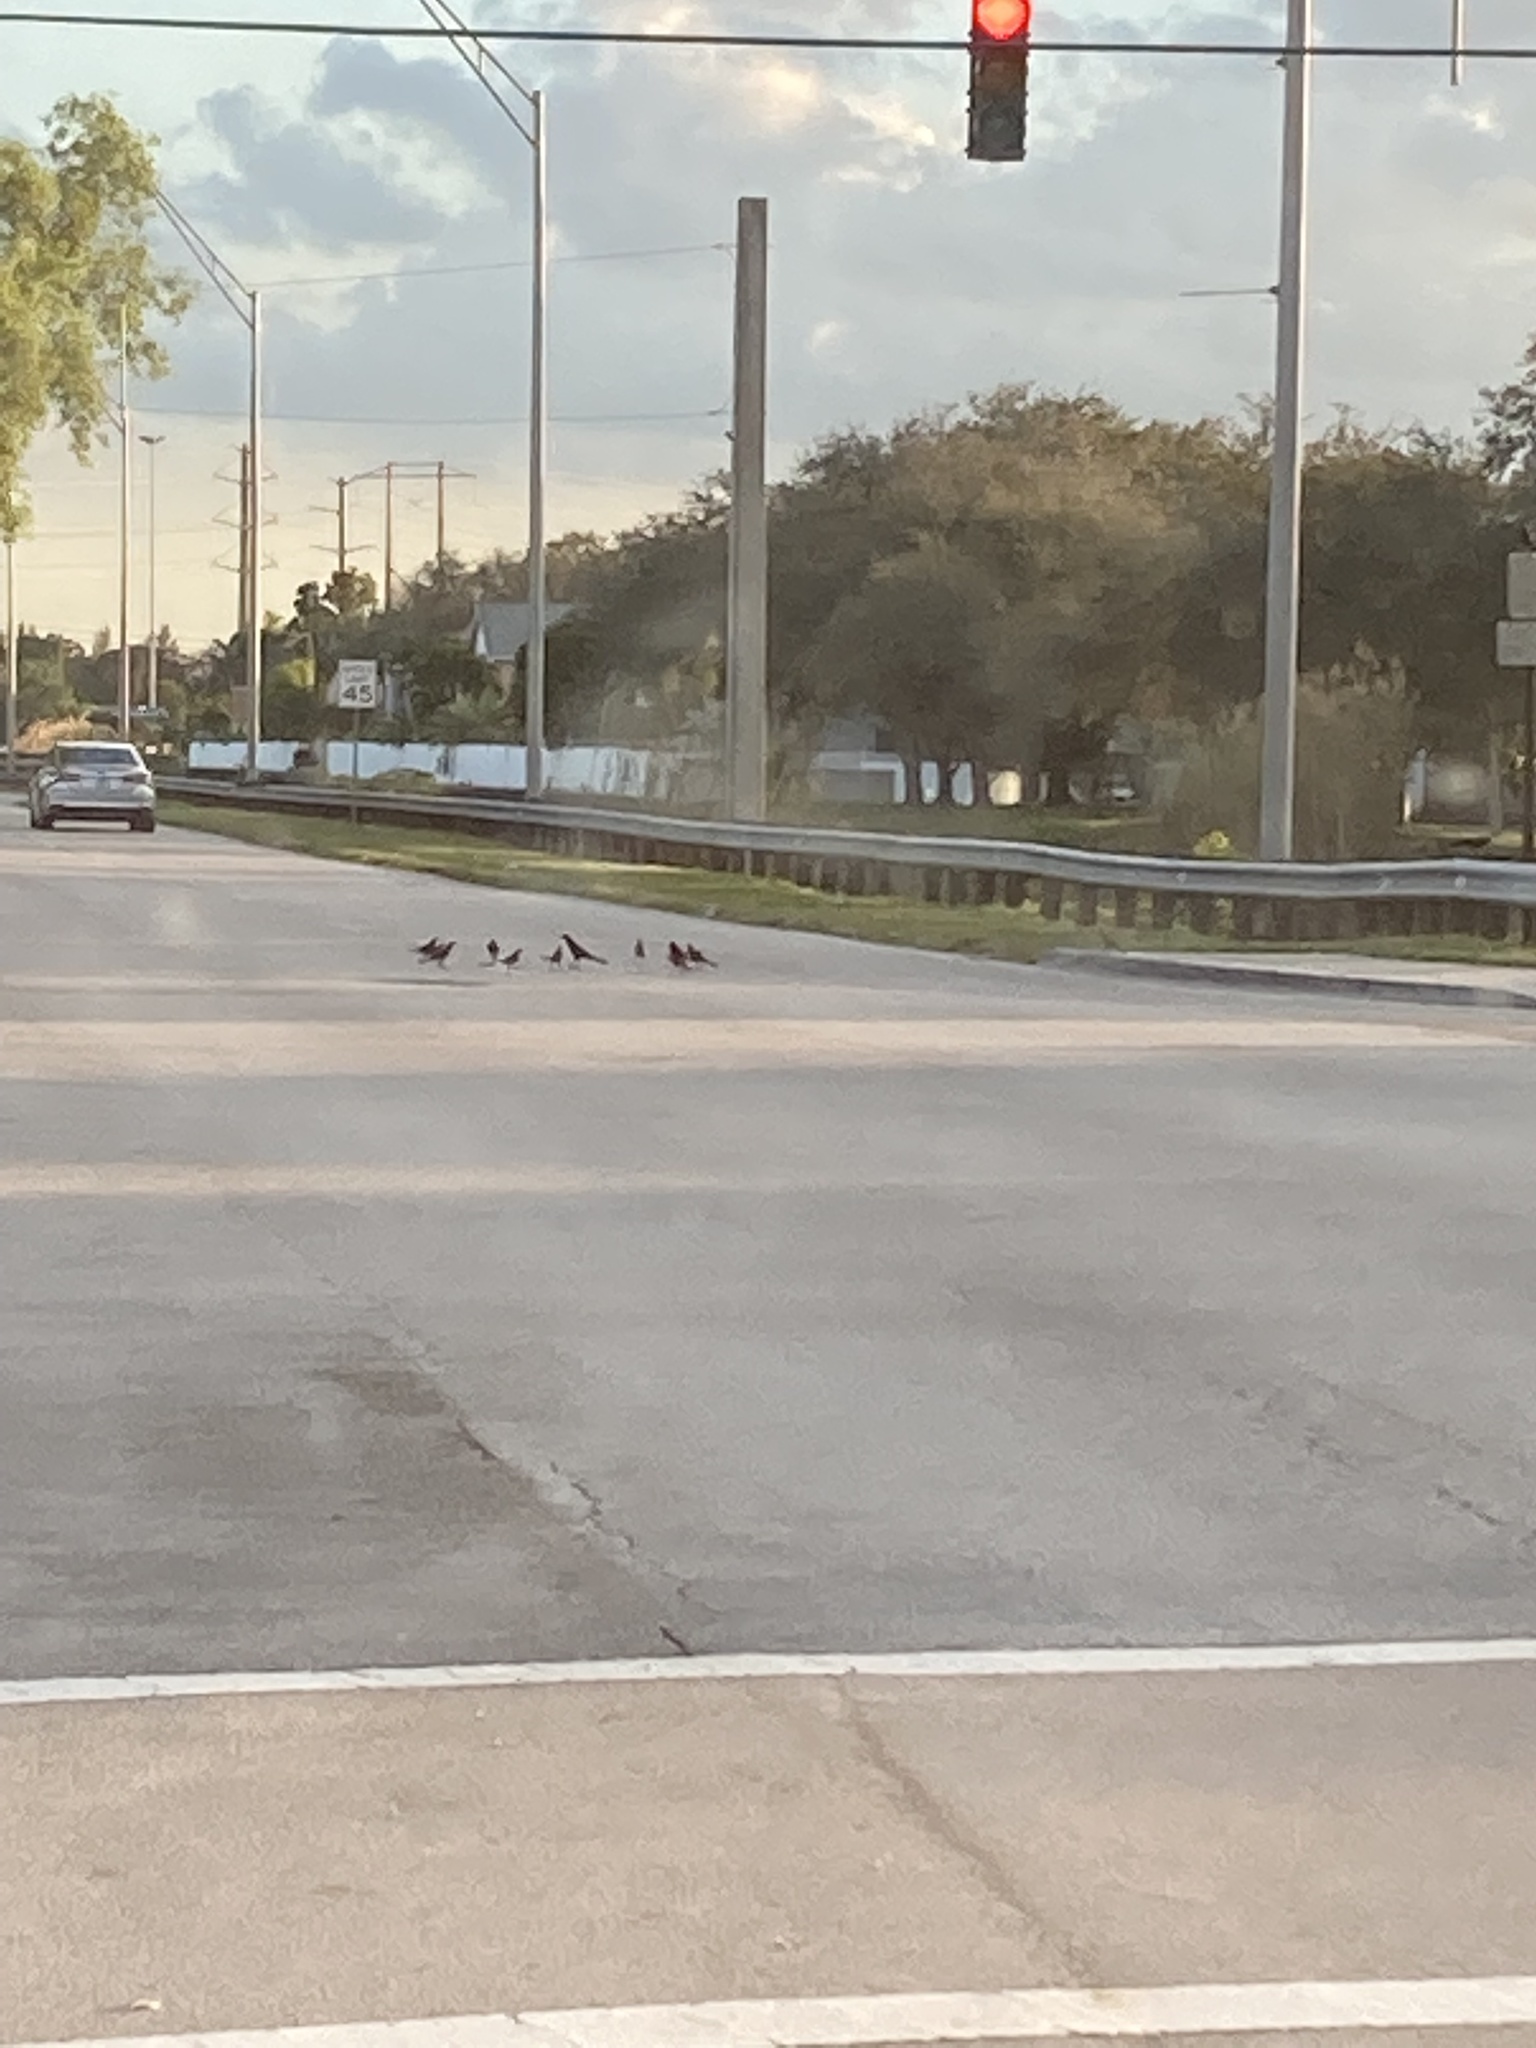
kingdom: Animalia
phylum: Chordata
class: Aves
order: Passeriformes
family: Icteridae
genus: Quiscalus
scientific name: Quiscalus major
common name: Boat-tailed grackle
